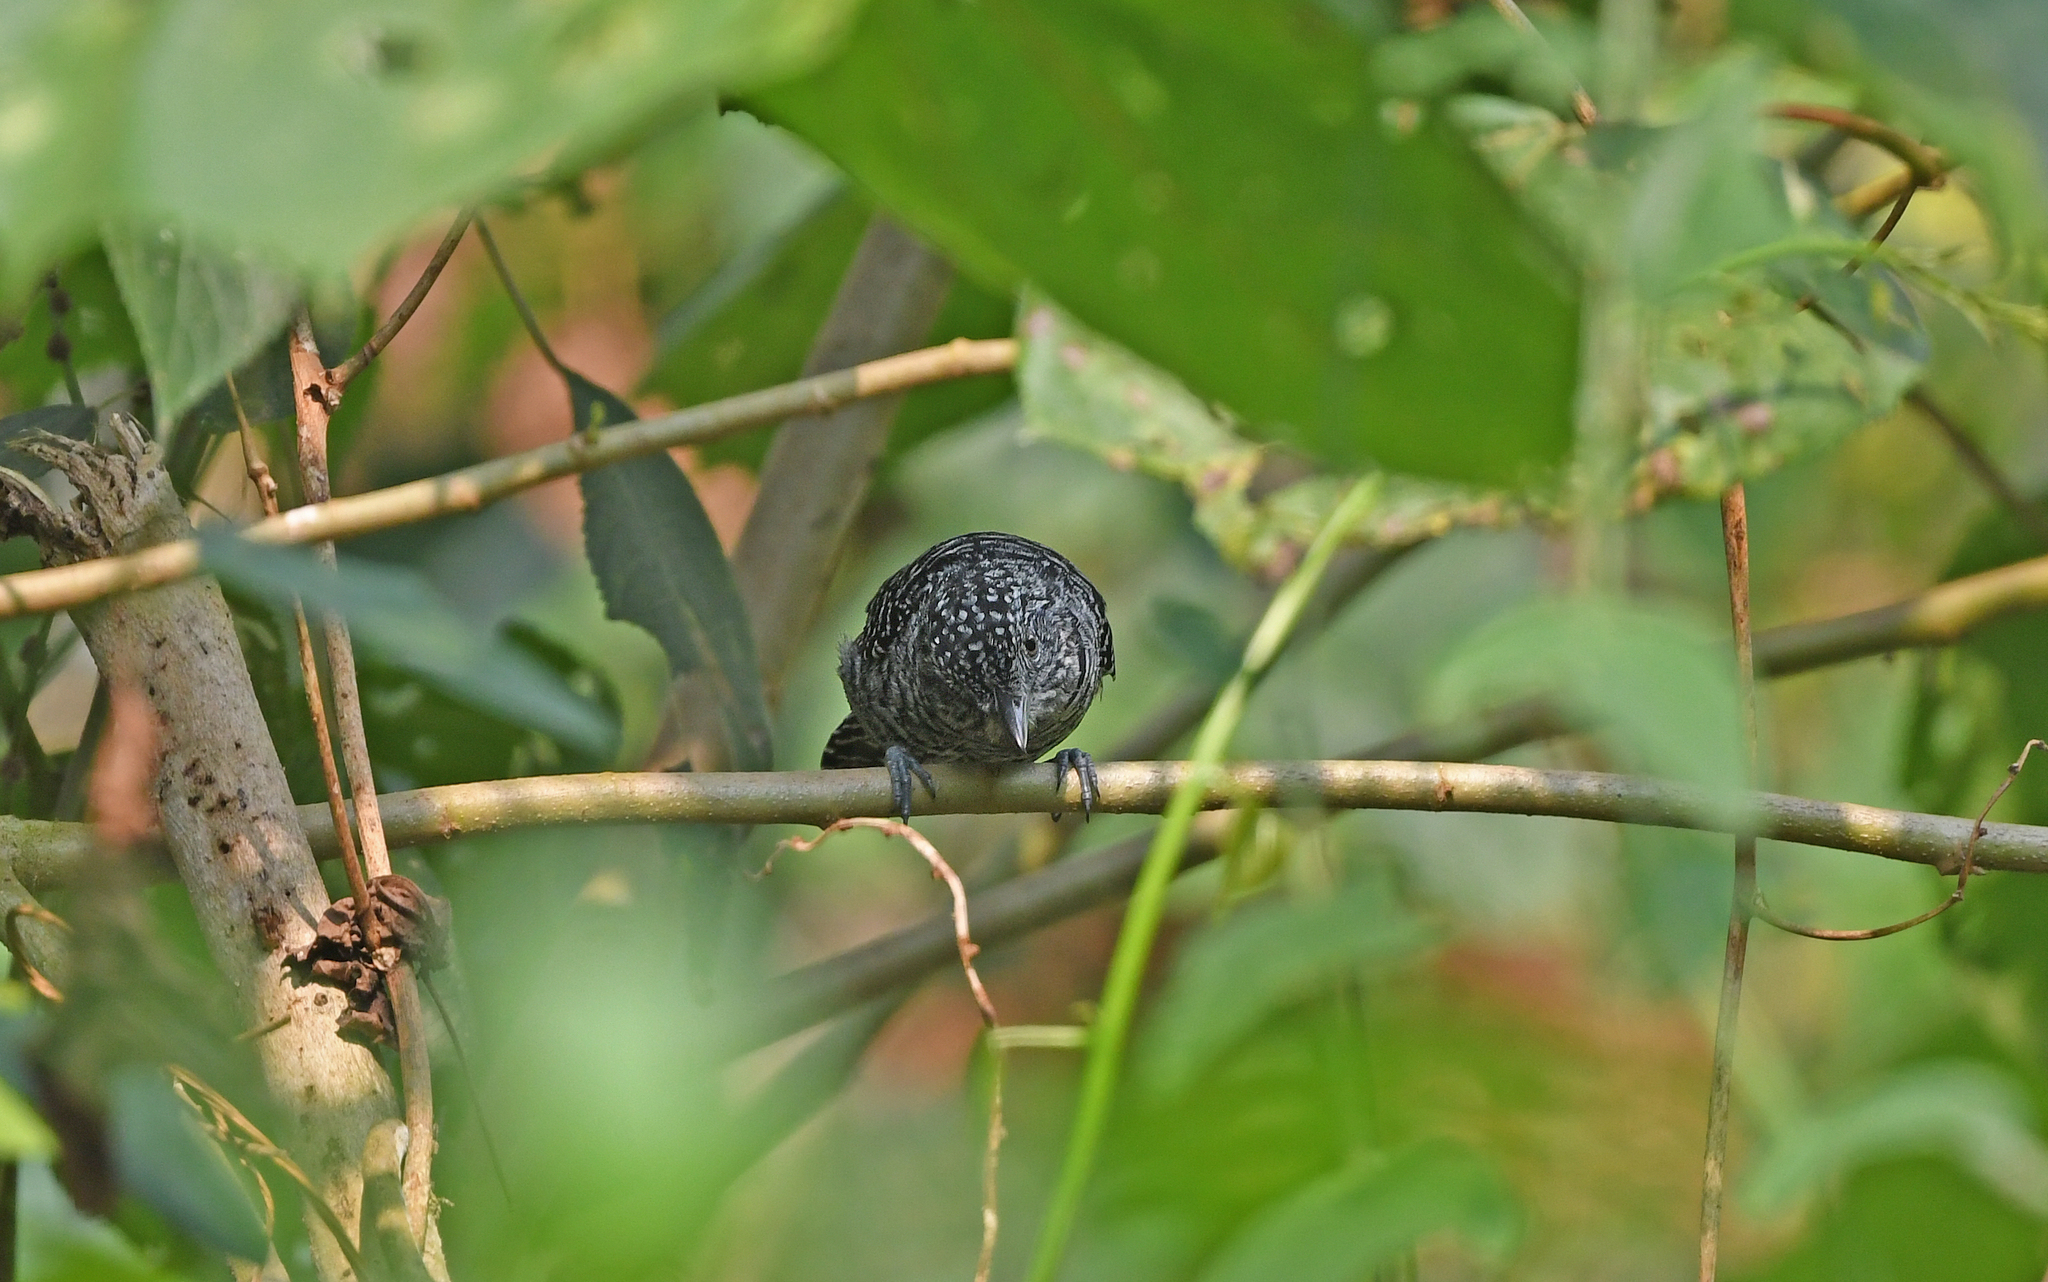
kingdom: Animalia
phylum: Chordata
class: Aves
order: Passeriformes
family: Thamnophilidae
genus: Thamnophilus
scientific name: Thamnophilus multistriatus
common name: Bar-crested antshrike
